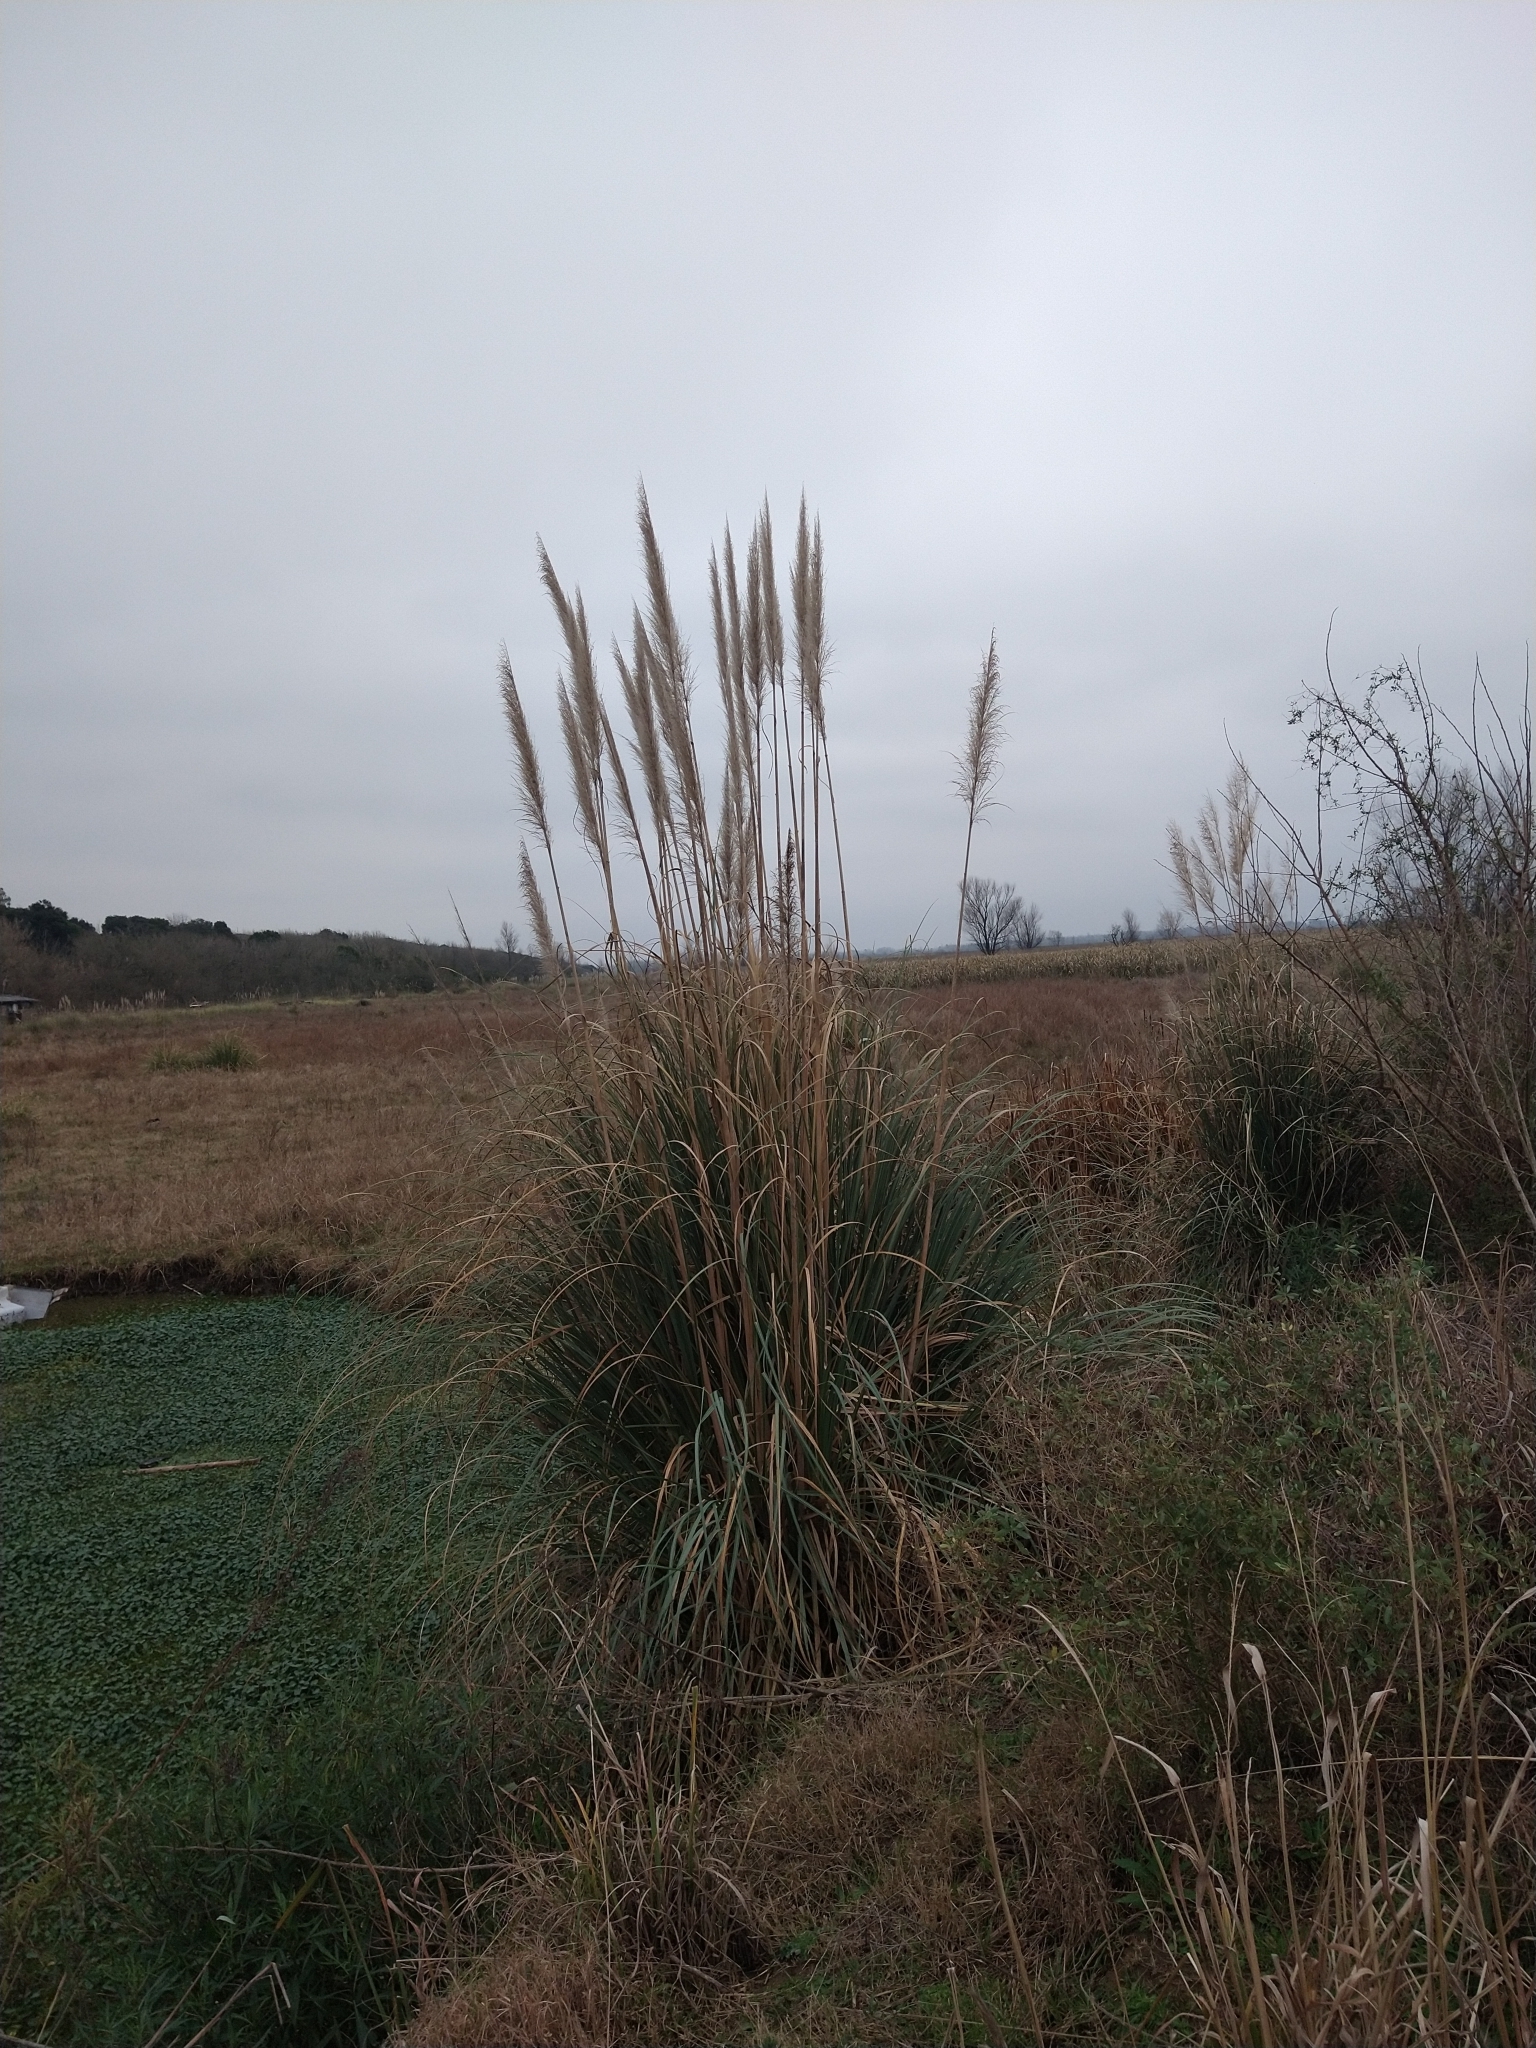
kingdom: Plantae
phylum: Tracheophyta
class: Liliopsida
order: Poales
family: Poaceae
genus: Cortaderia
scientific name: Cortaderia selloana
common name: Uruguayan pampas grass
